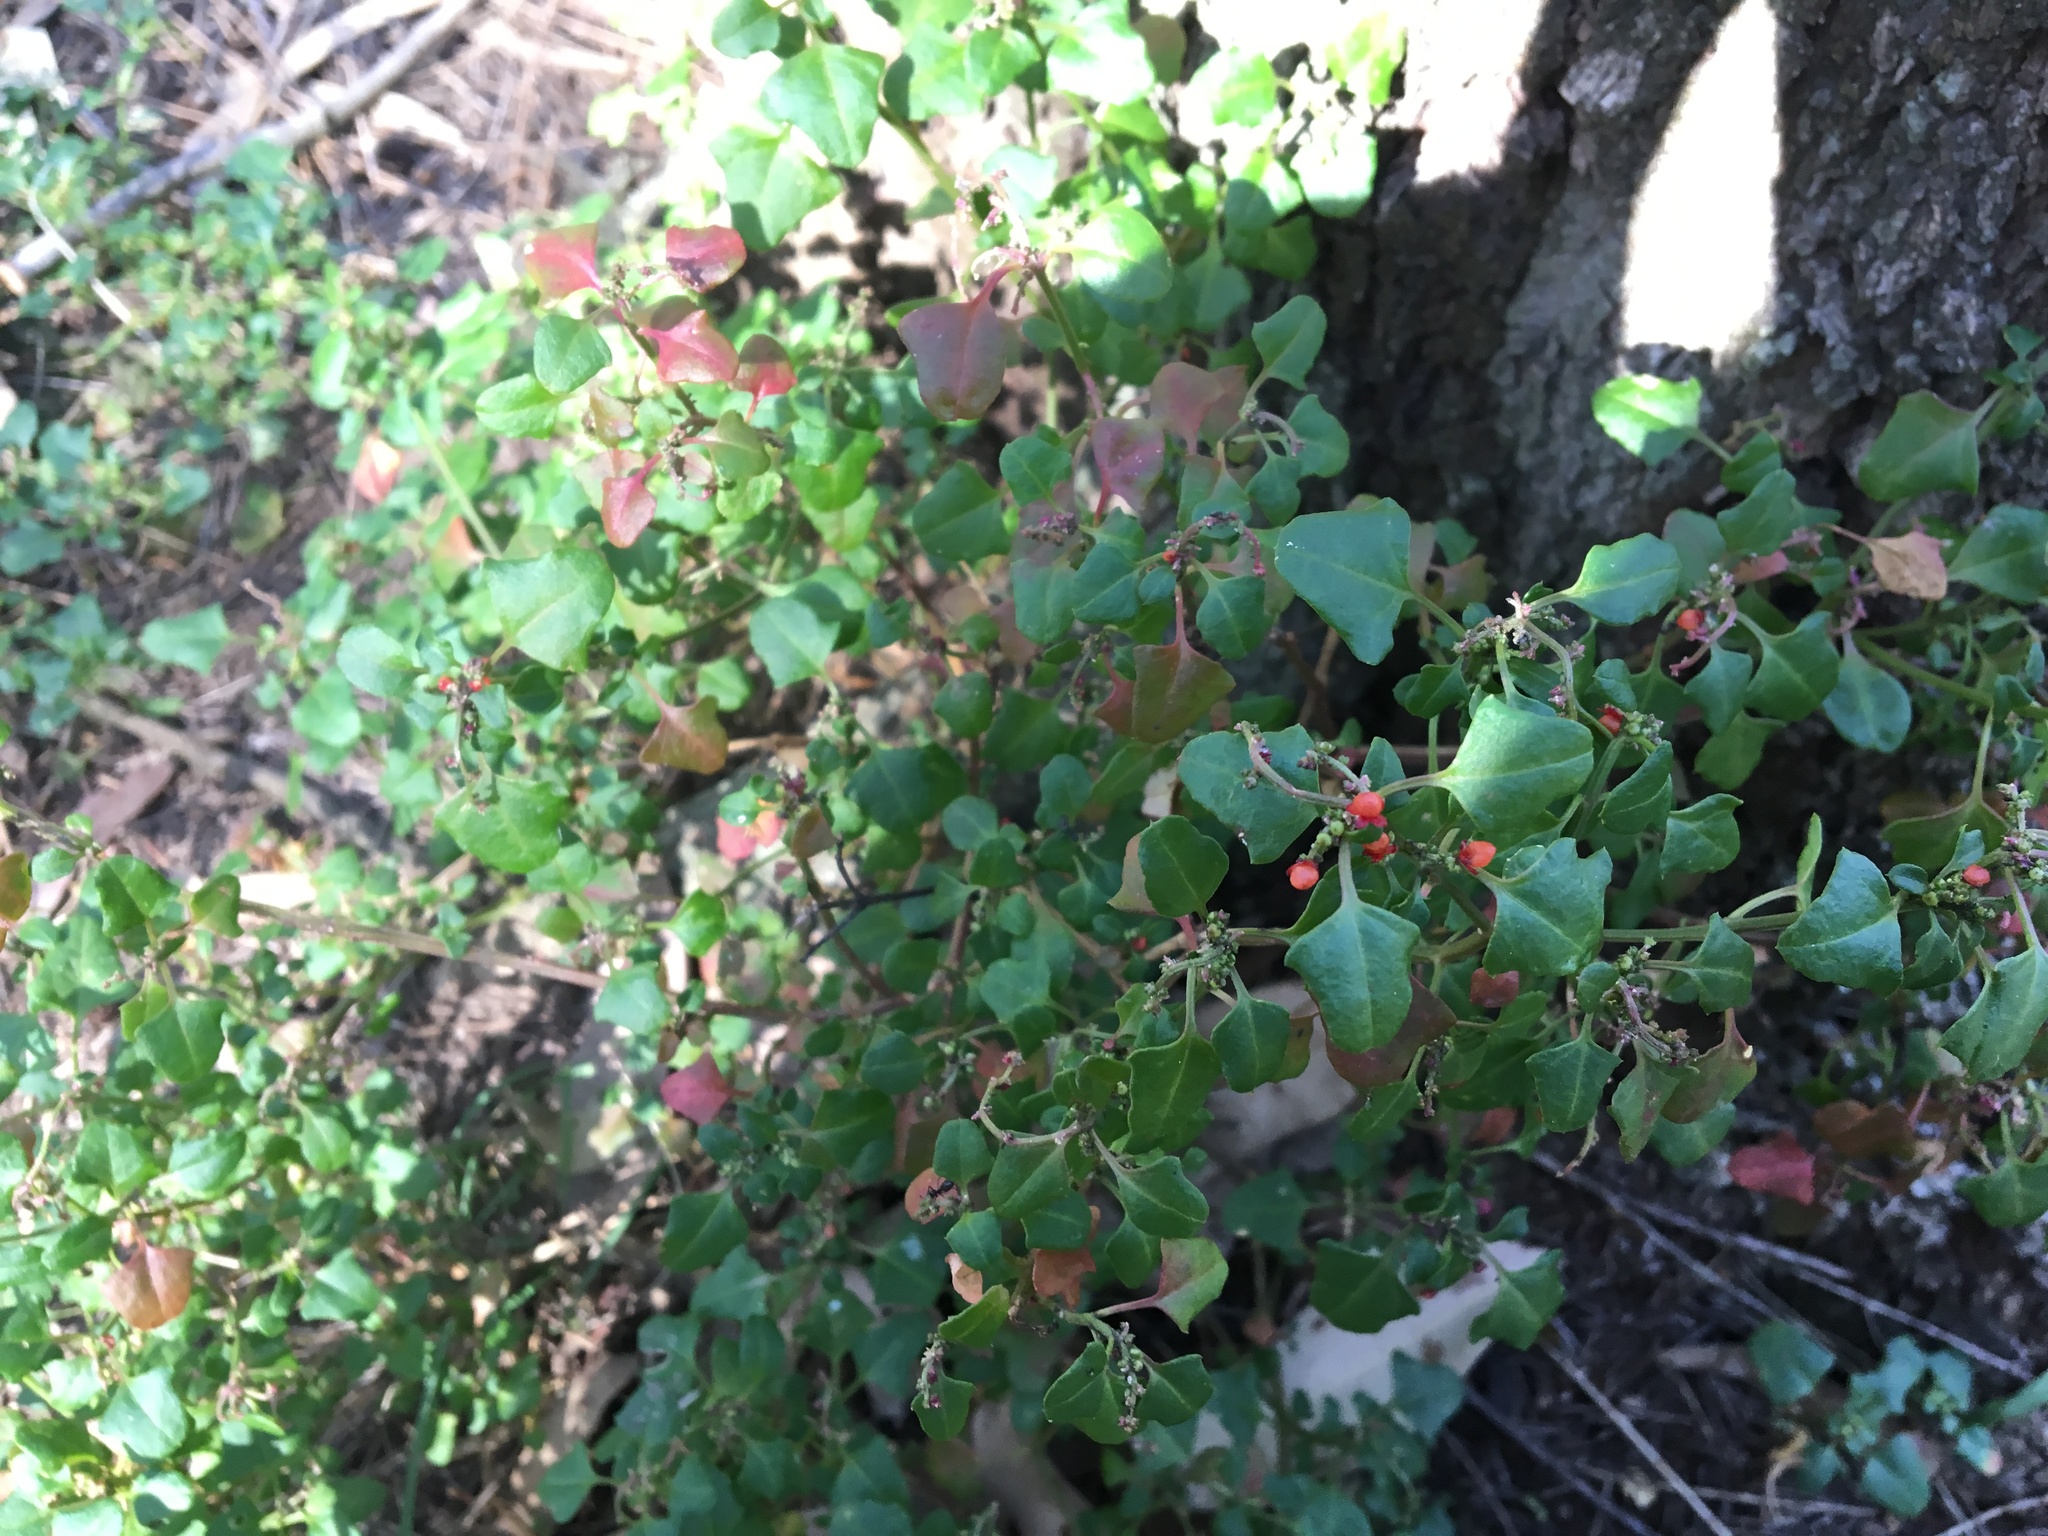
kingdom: Plantae
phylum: Tracheophyta
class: Magnoliopsida
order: Caryophyllales
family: Amaranthaceae
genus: Chenopodium
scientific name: Chenopodium robertianum
